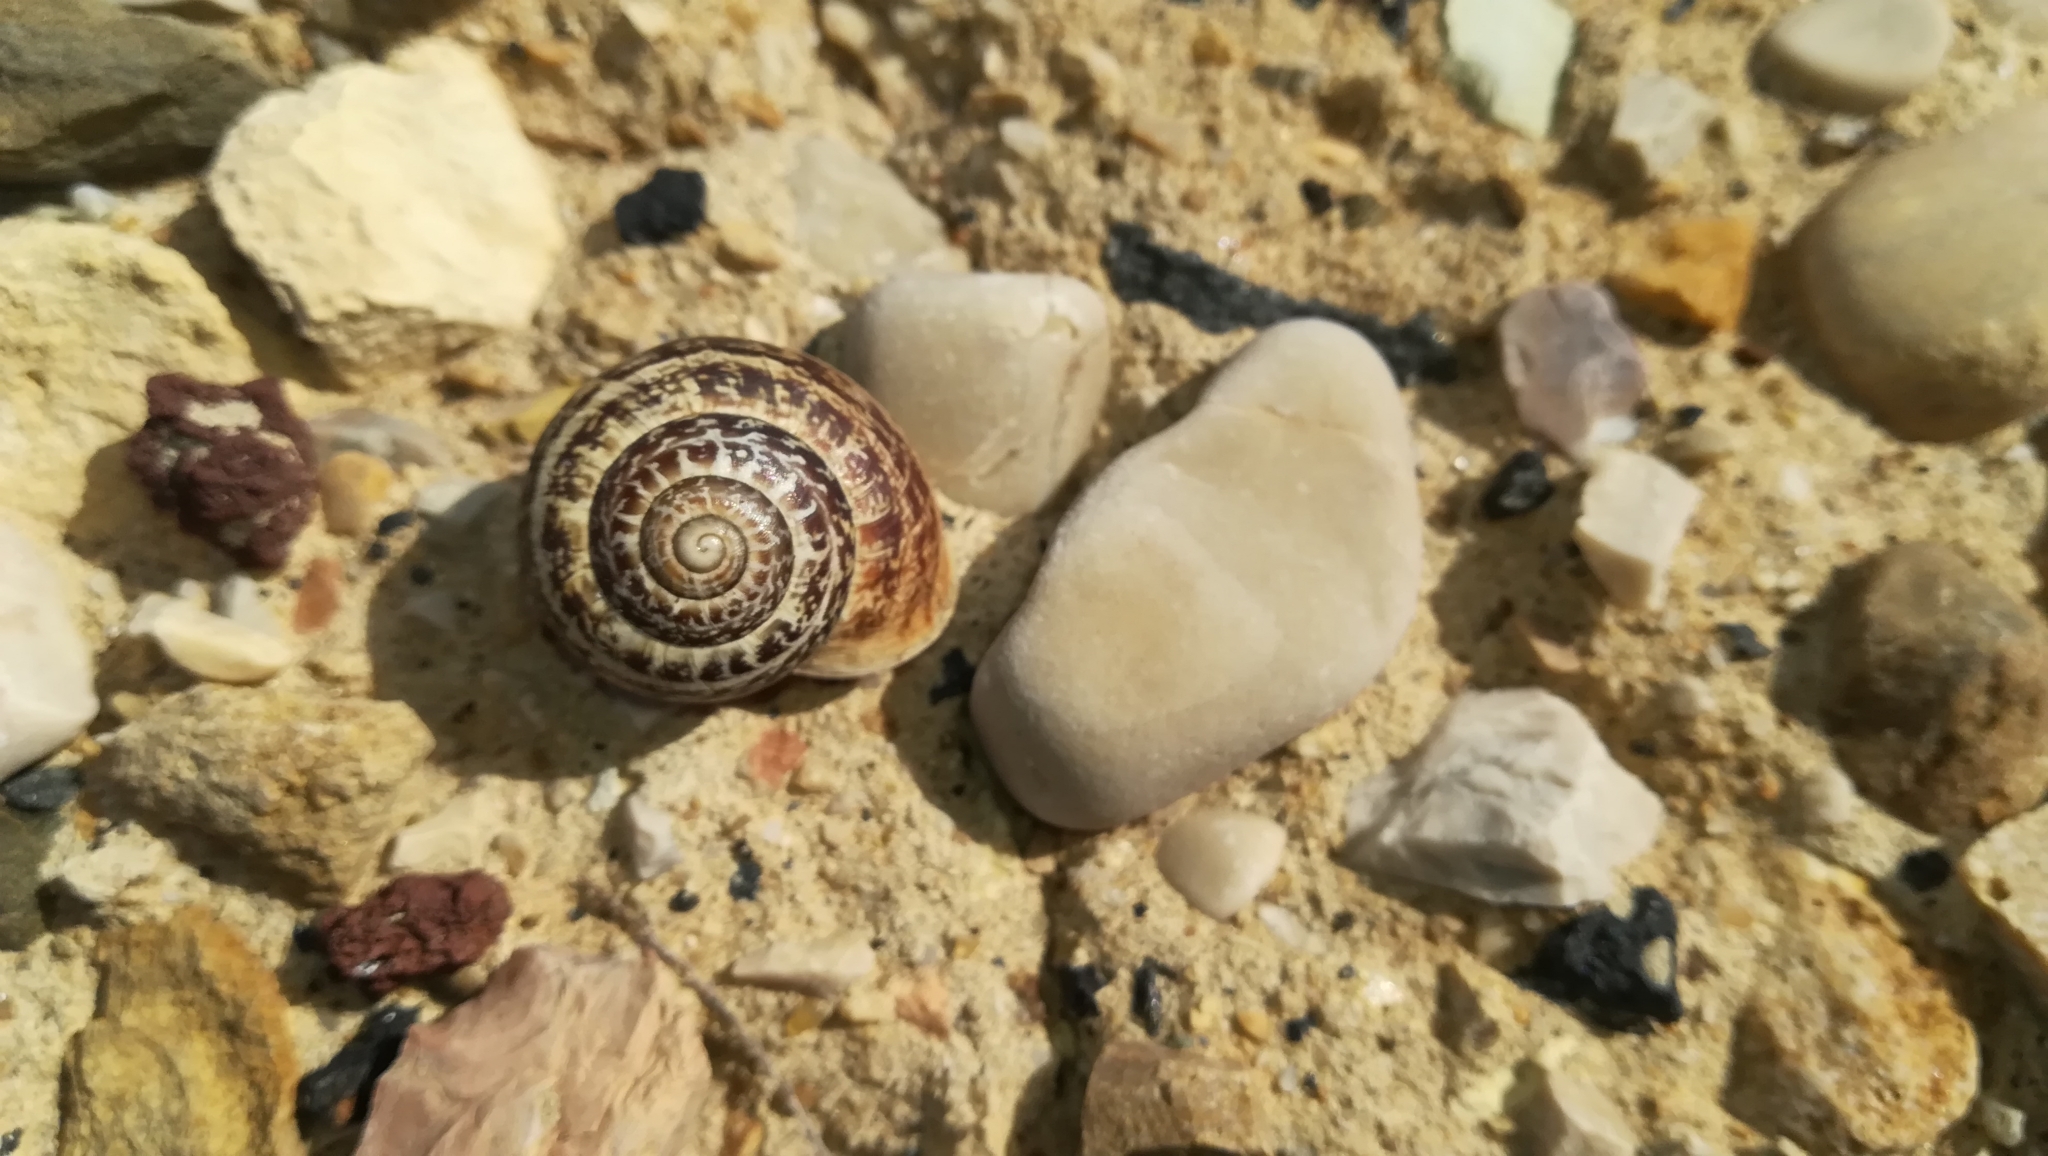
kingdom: Animalia
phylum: Mollusca
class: Gastropoda
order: Stylommatophora
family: Helicidae
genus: Eobania
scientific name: Eobania vermiculata
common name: Chocolateband snail
